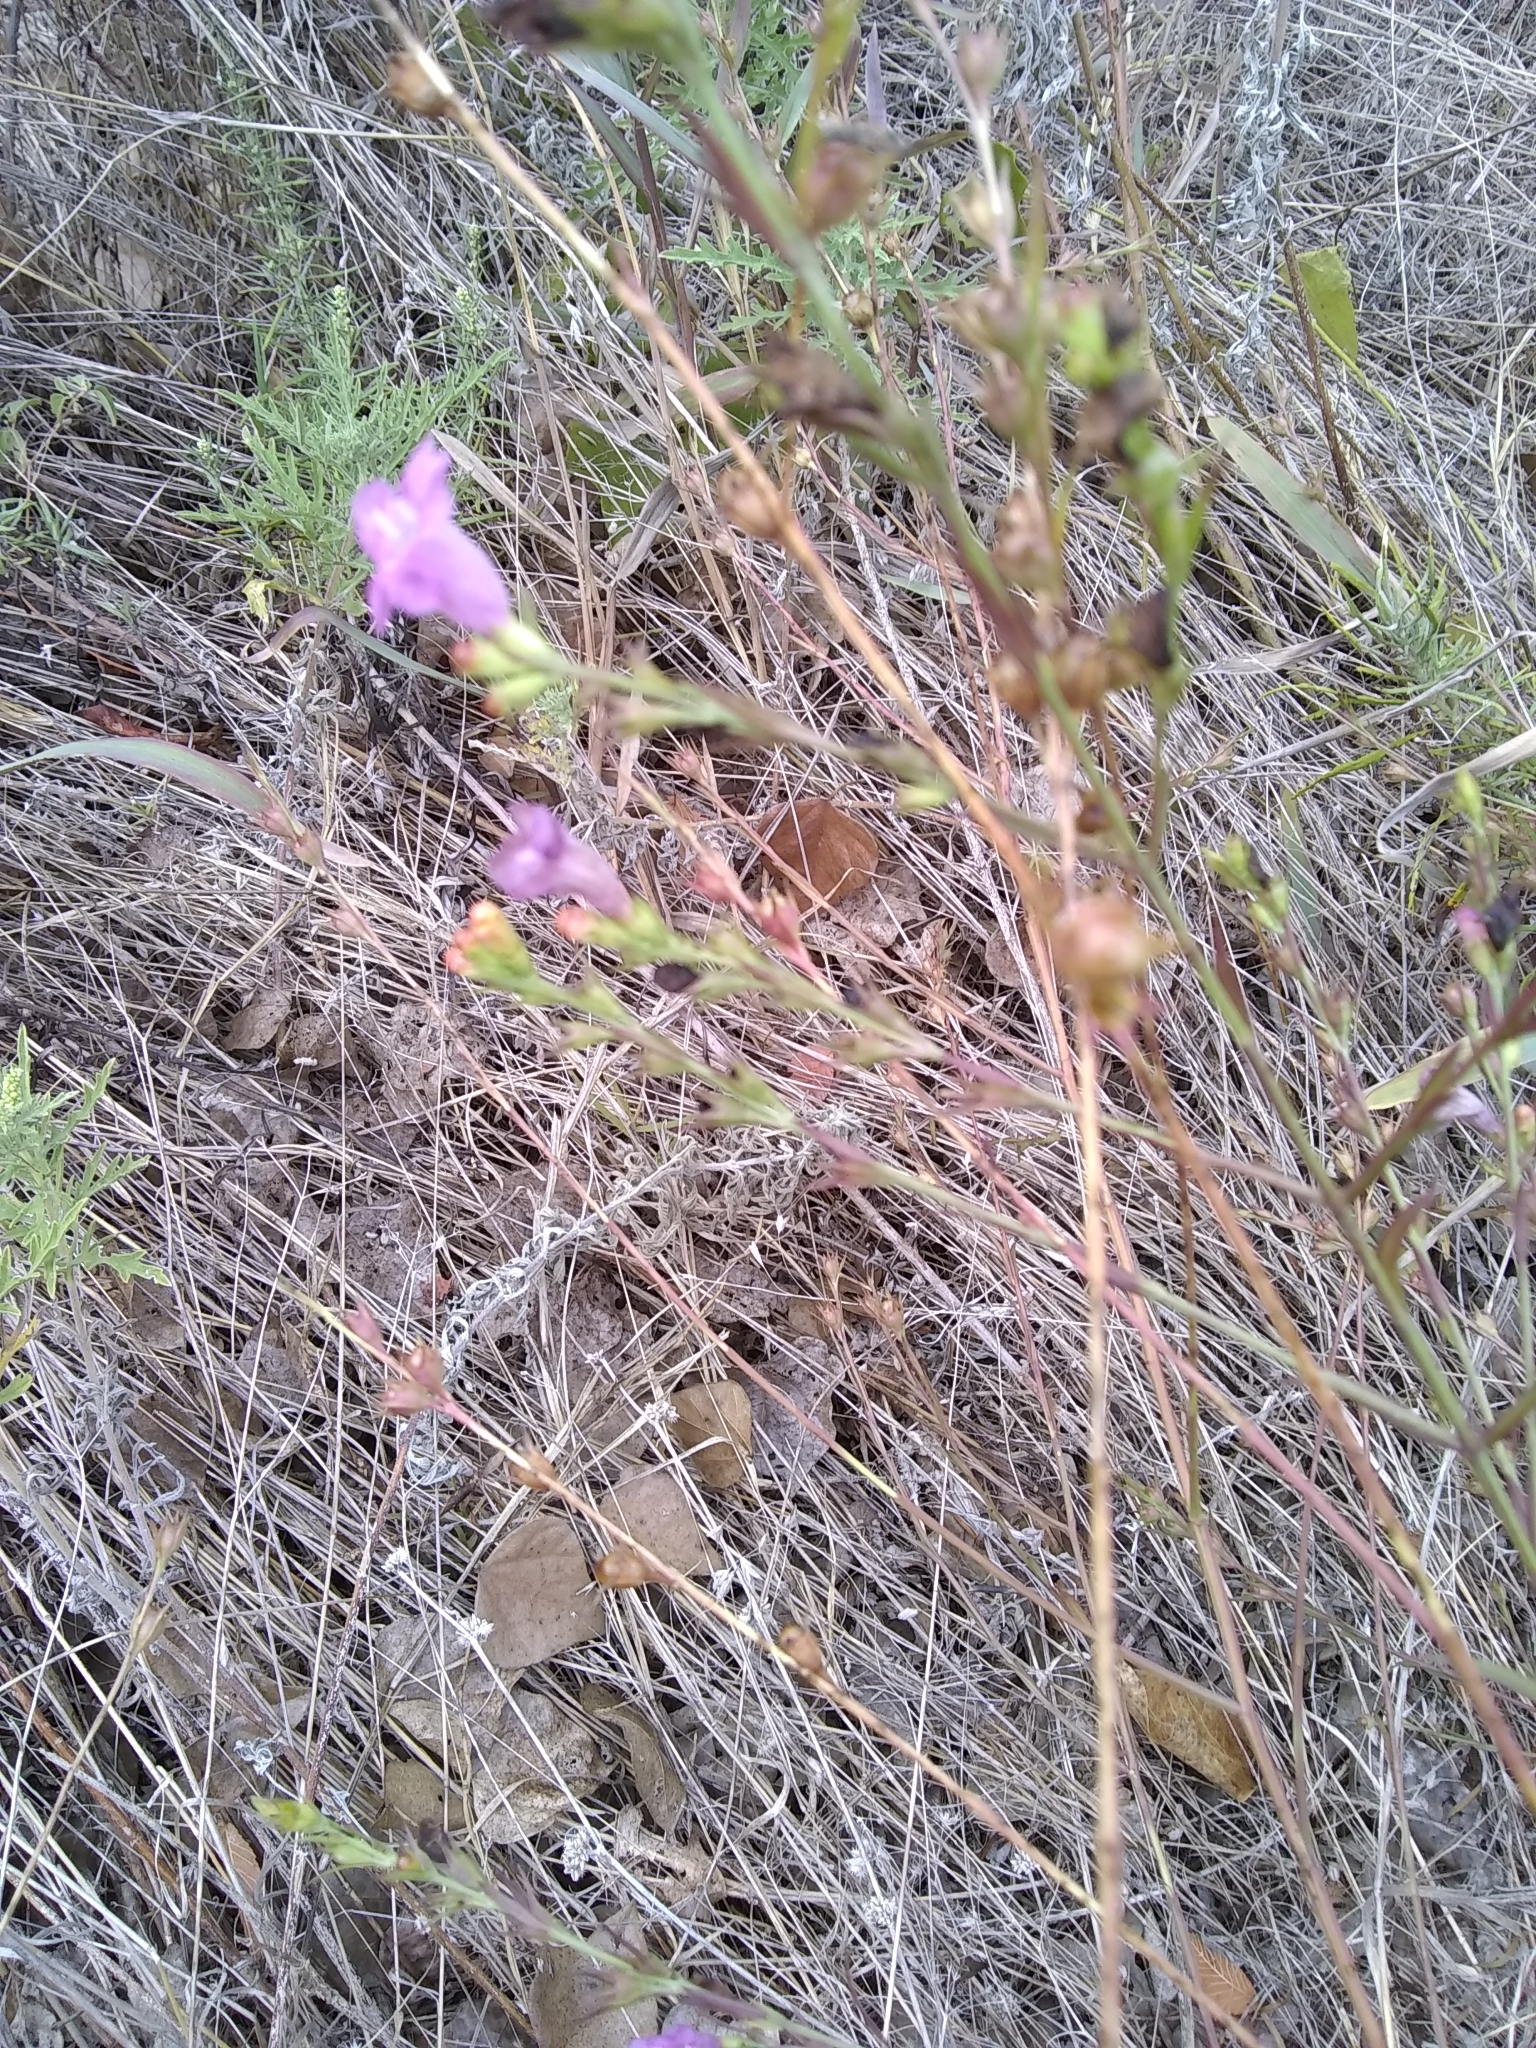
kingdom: Plantae
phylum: Tracheophyta
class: Magnoliopsida
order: Lamiales
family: Orobanchaceae
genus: Agalinis
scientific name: Agalinis heterophylla
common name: Prairie agalinis
